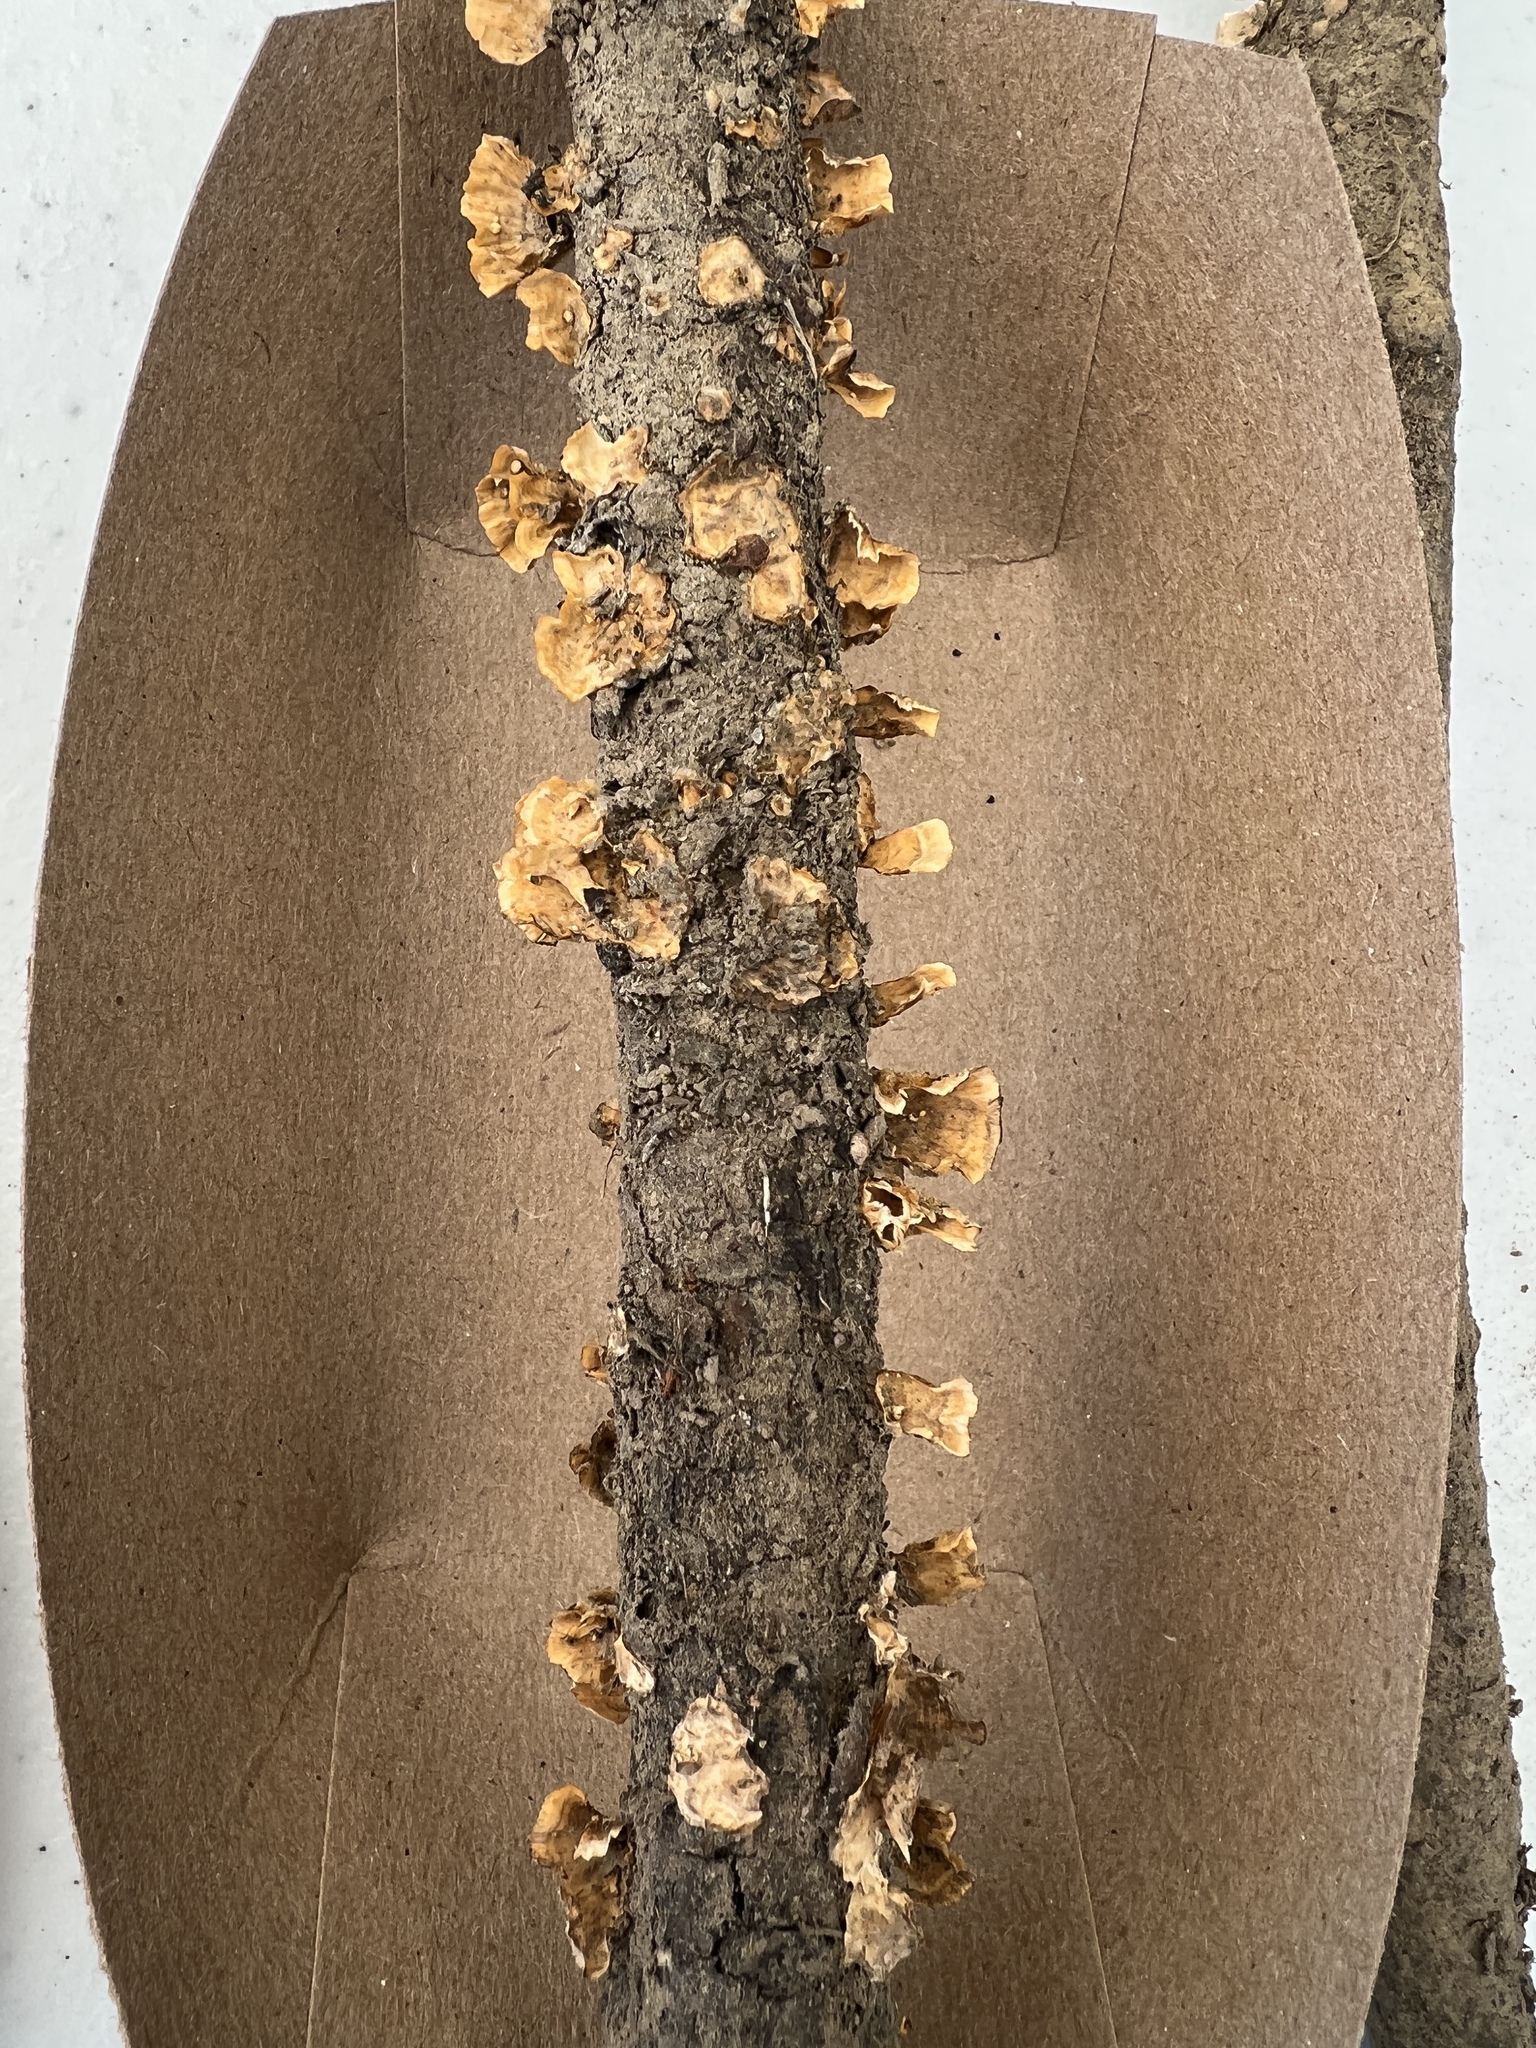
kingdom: Fungi
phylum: Basidiomycota
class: Agaricomycetes
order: Russulales
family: Stereaceae
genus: Stereum
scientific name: Stereum complicatum
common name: Crowded parchment
